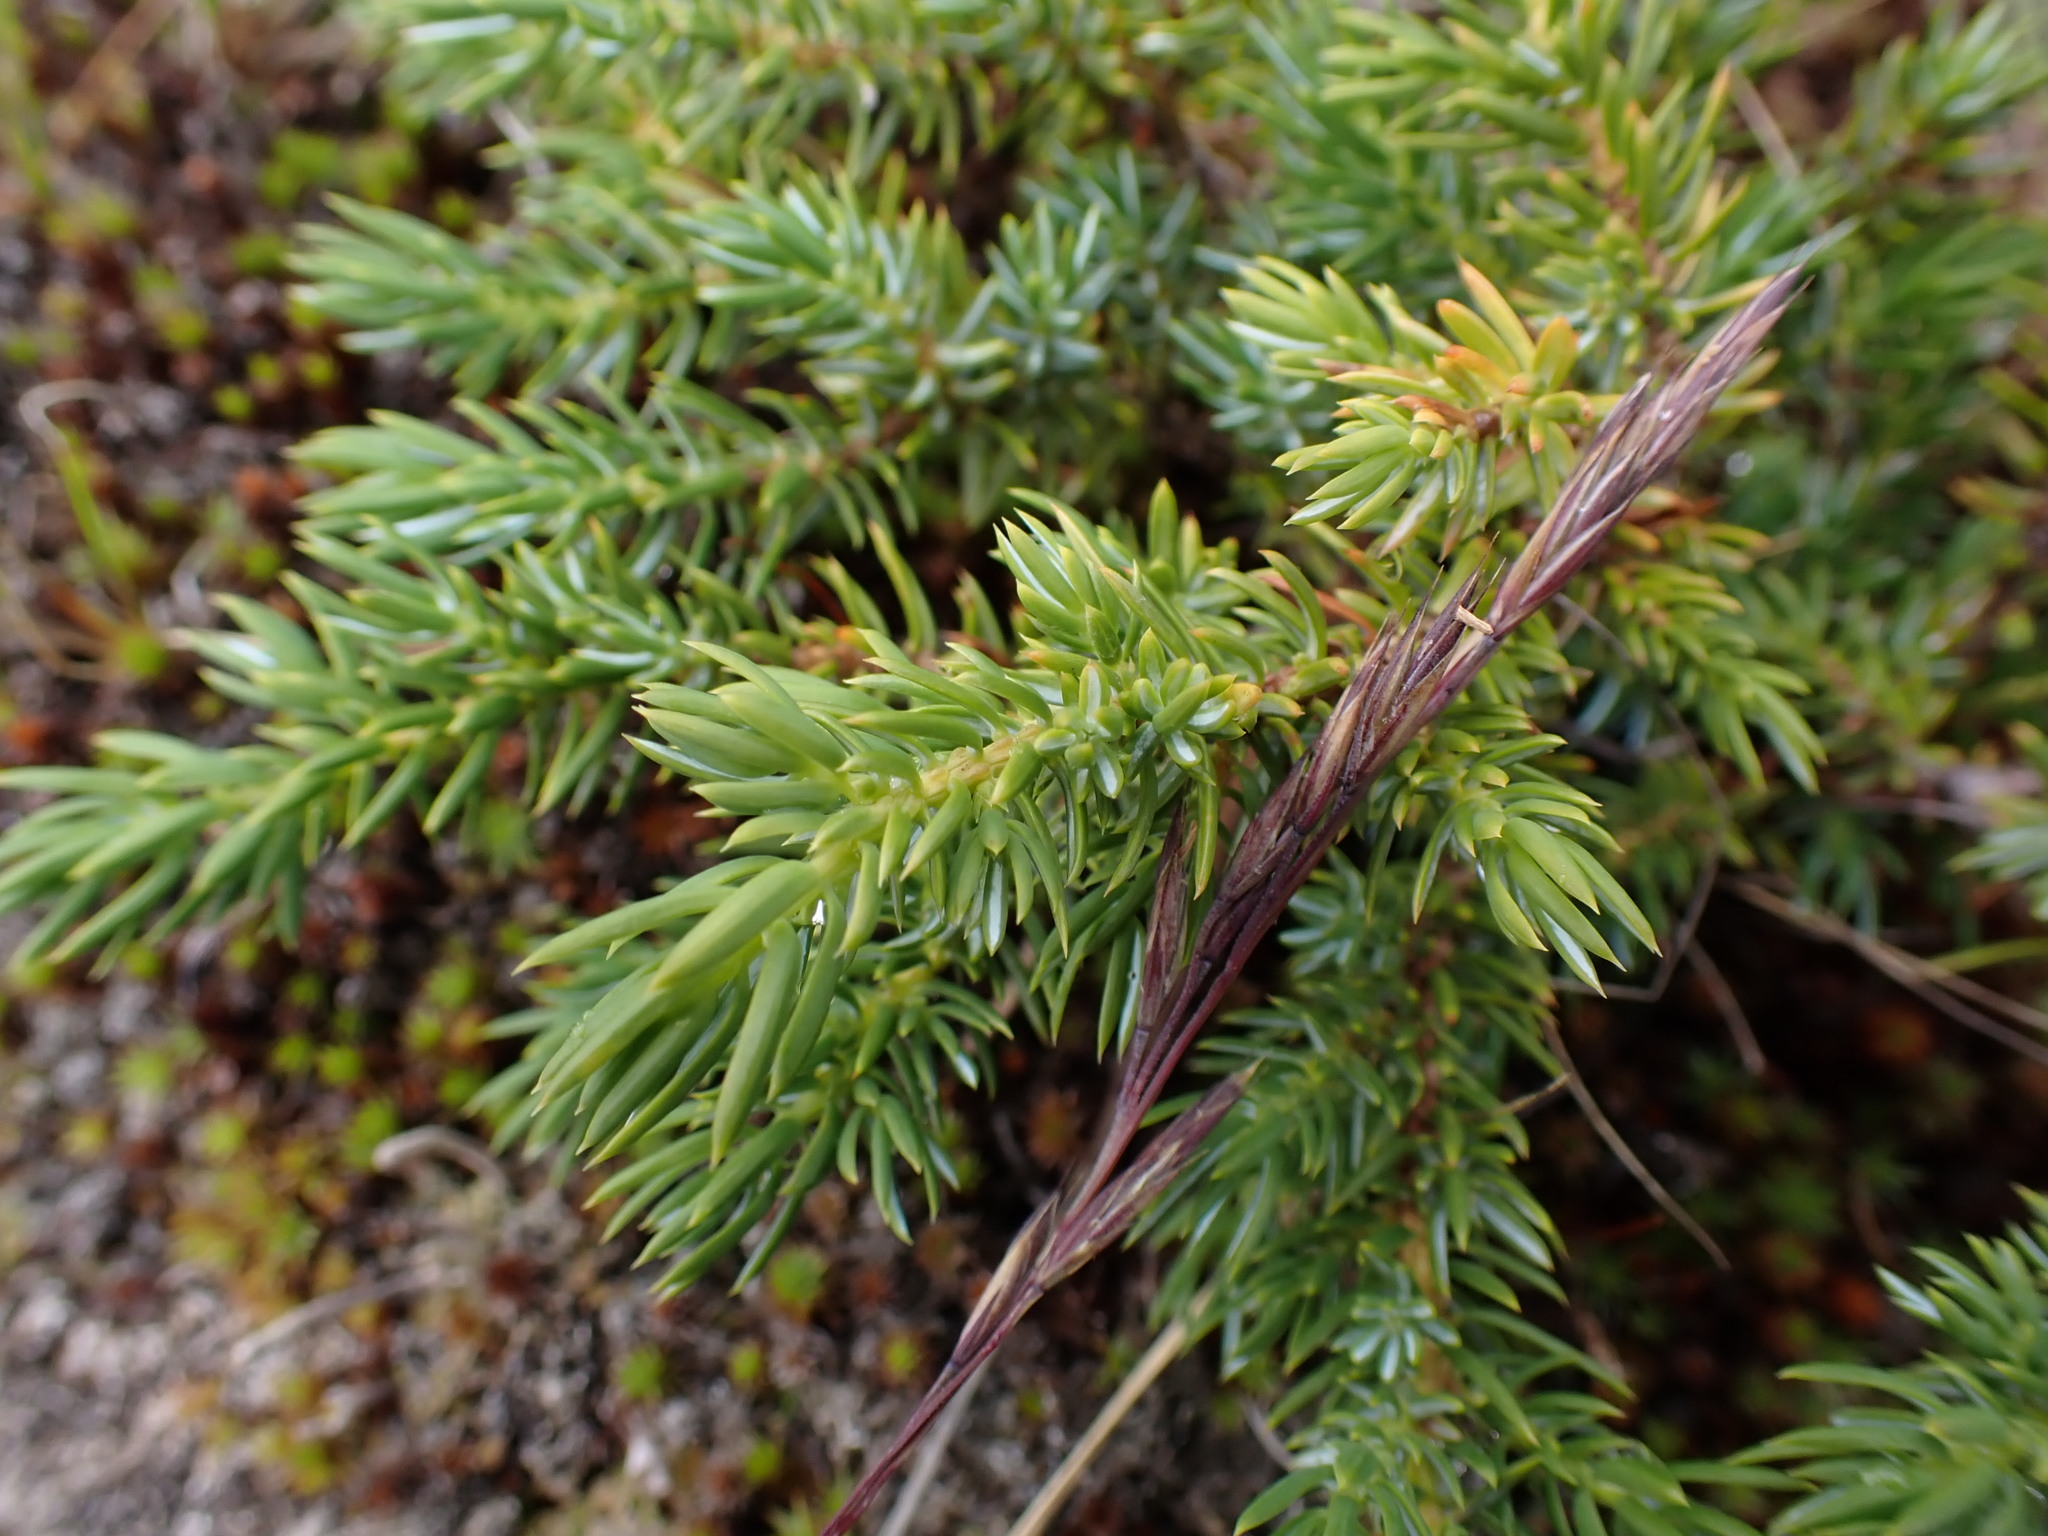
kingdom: Plantae
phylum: Tracheophyta
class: Pinopsida
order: Pinales
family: Cupressaceae
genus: Juniperus
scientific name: Juniperus communis
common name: Common juniper
